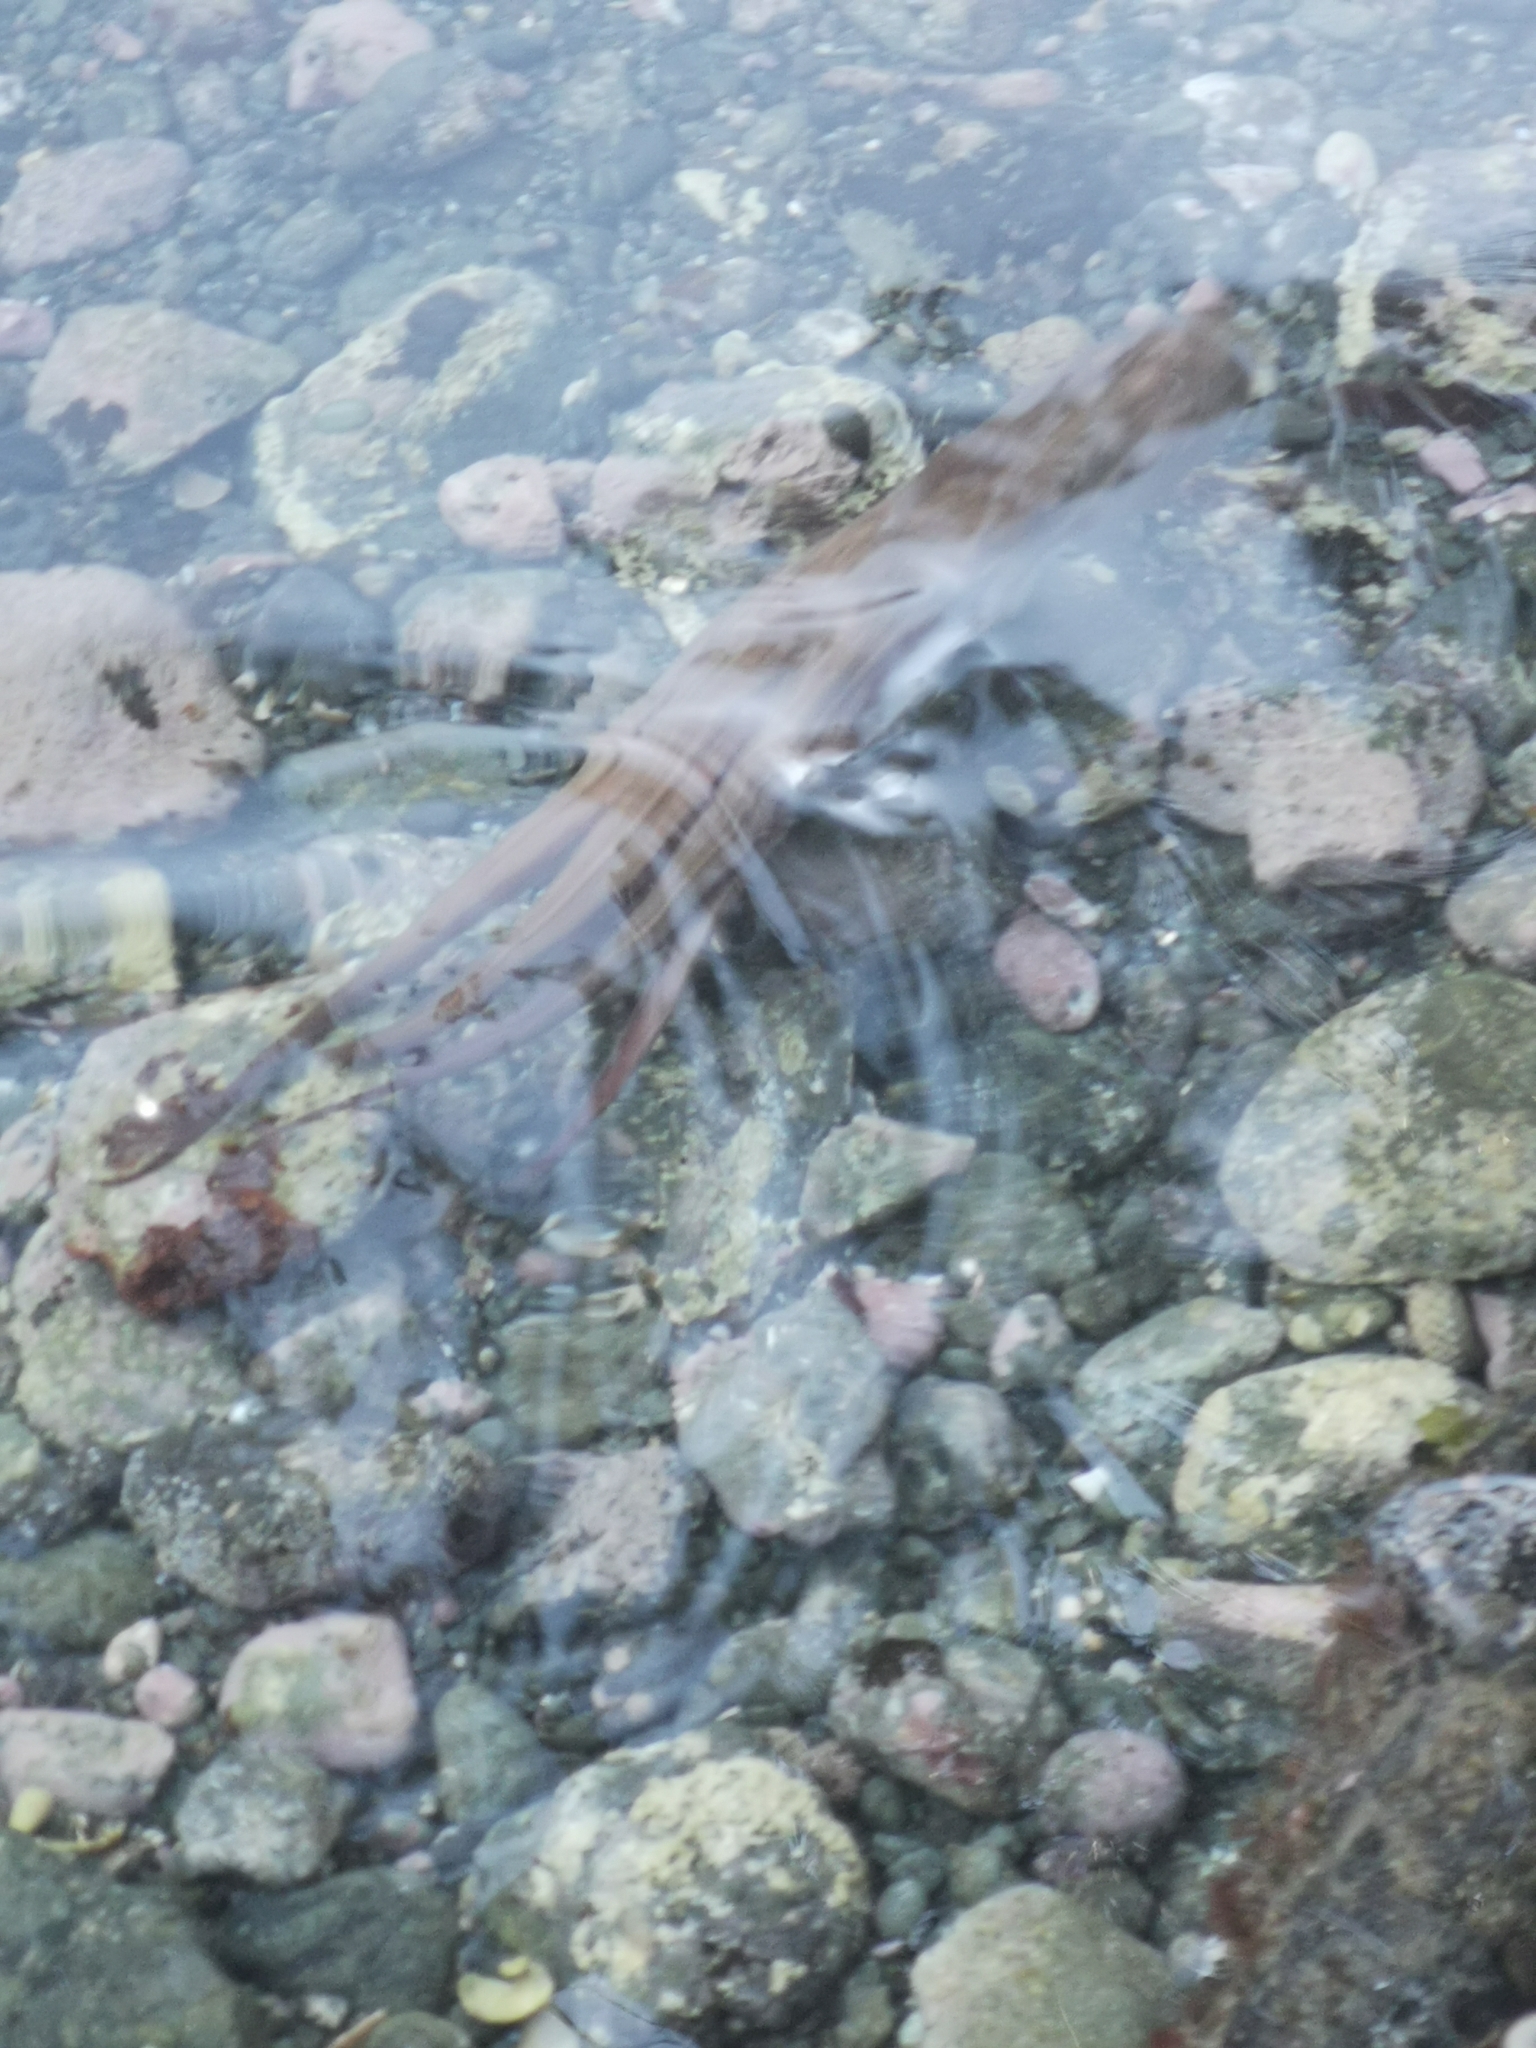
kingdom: Animalia
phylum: Mollusca
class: Cephalopoda
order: Octopoda
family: Octopodidae
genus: Macroctopus
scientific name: Macroctopus maorum
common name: Maori octopus
